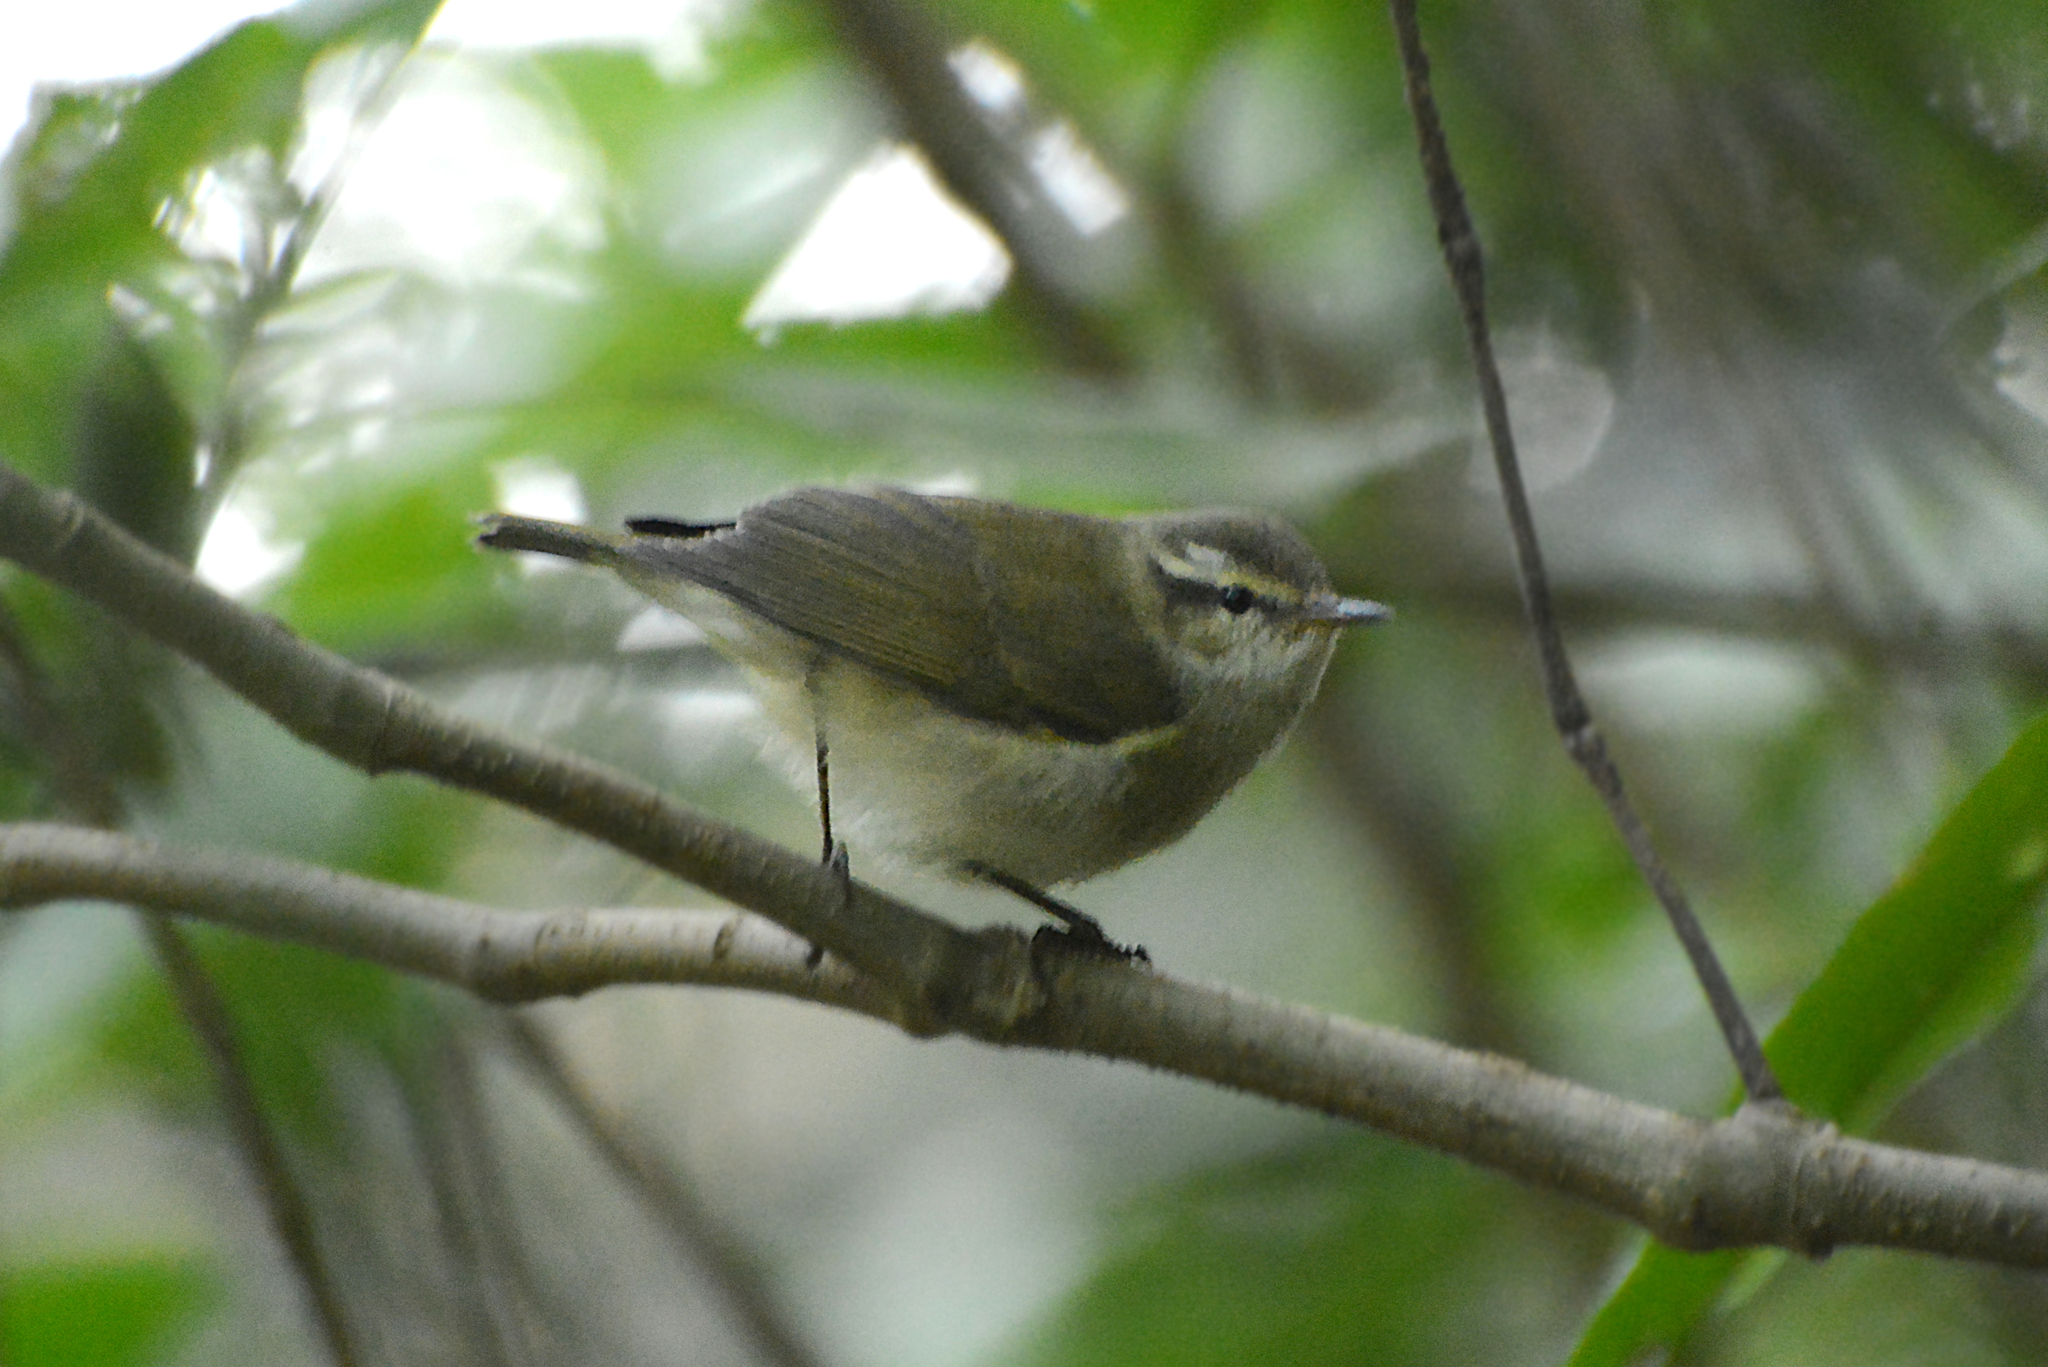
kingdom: Animalia
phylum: Chordata
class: Aves
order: Passeriformes
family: Phylloscopidae
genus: Phylloscopus
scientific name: Phylloscopus tytleri
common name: Tytler's leaf warbler
